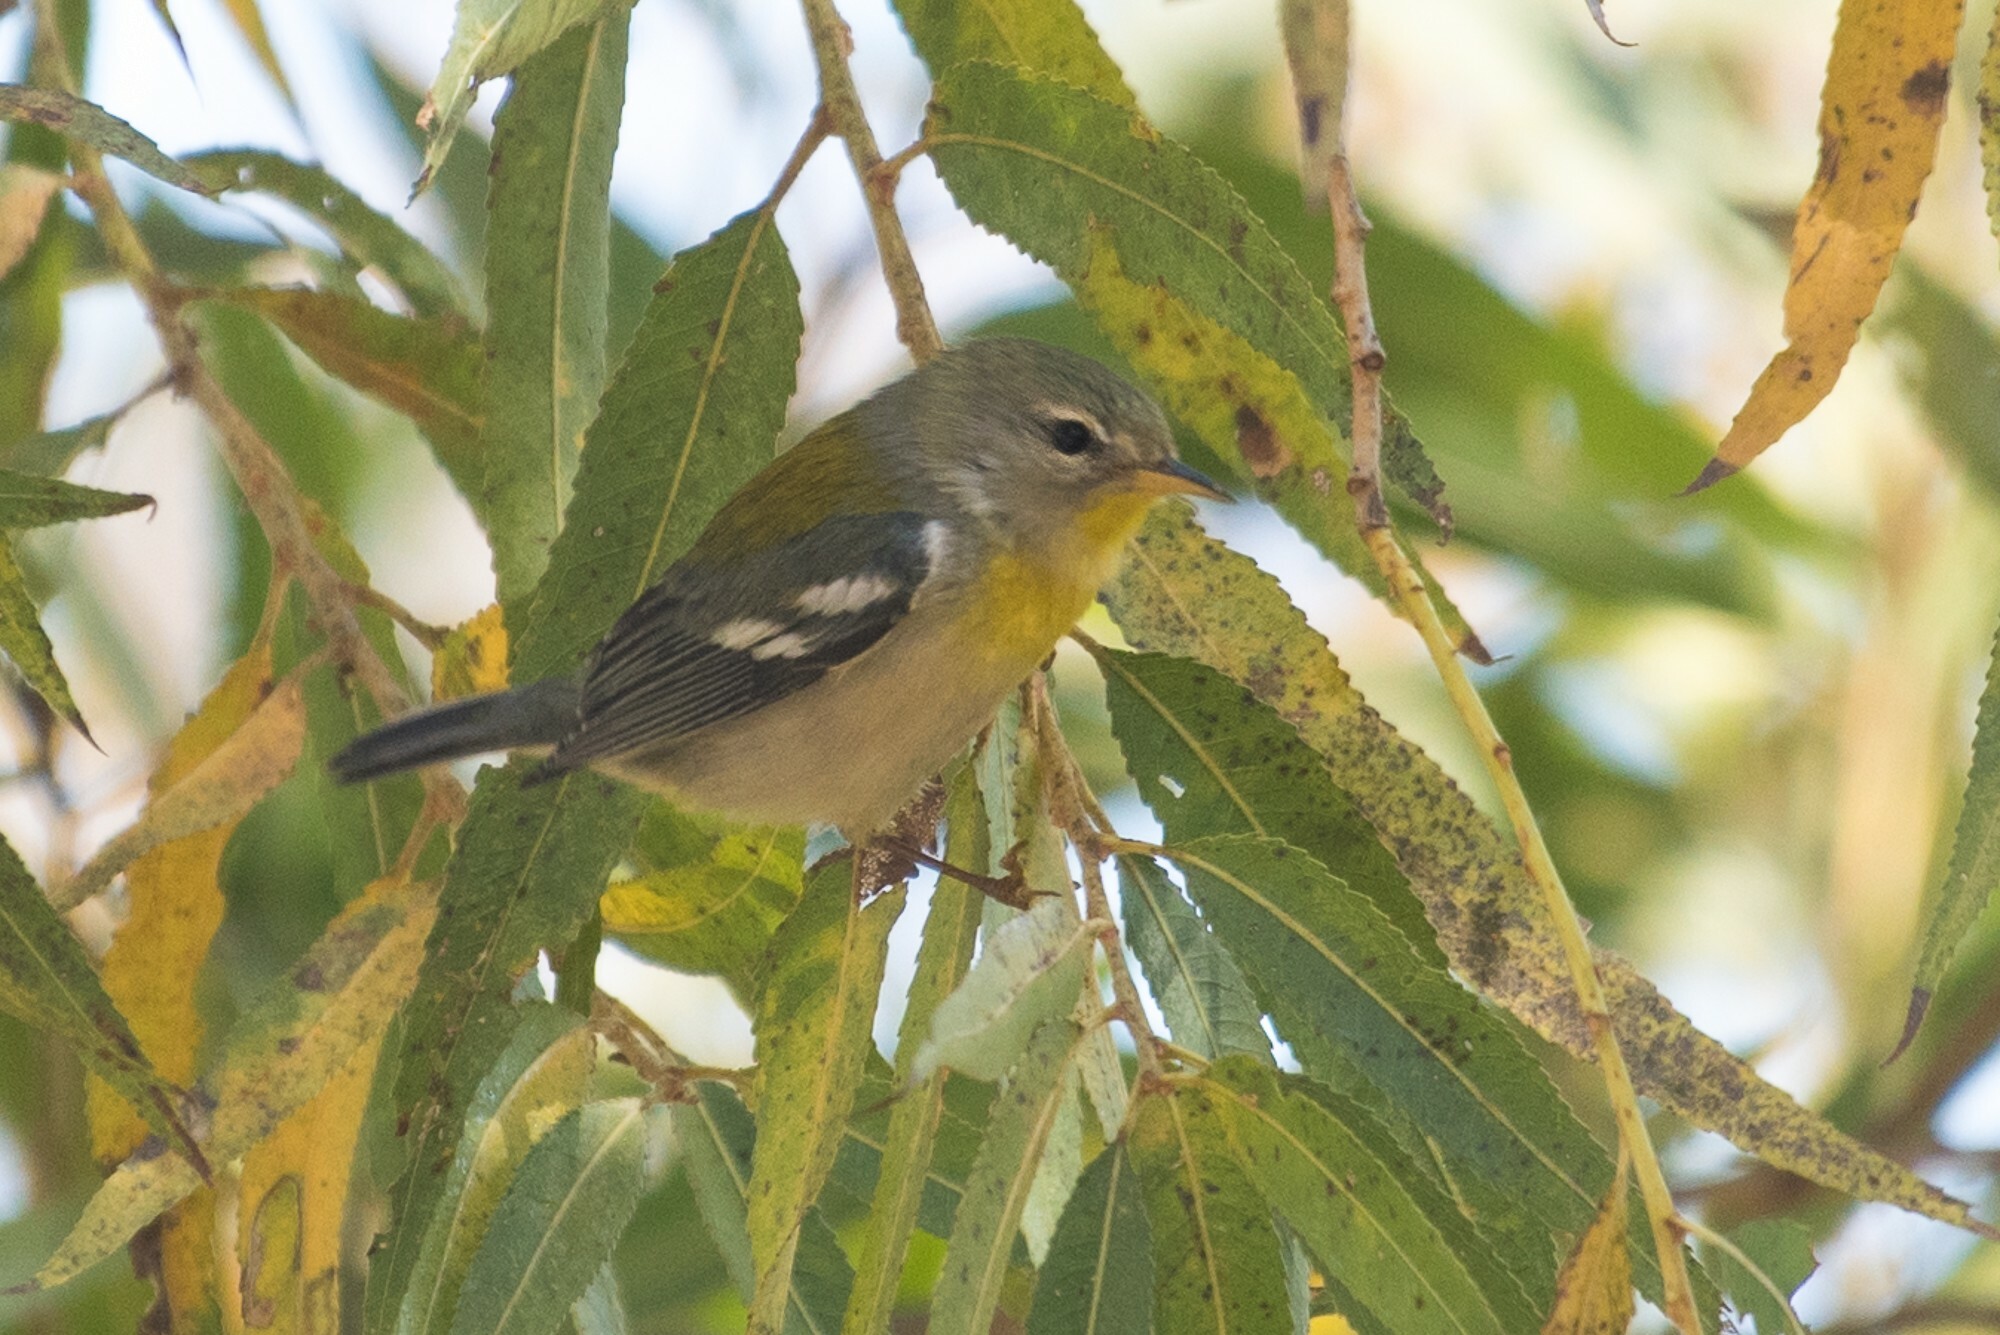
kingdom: Animalia
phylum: Chordata
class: Aves
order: Passeriformes
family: Parulidae
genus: Setophaga
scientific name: Setophaga americana
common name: Northern parula
